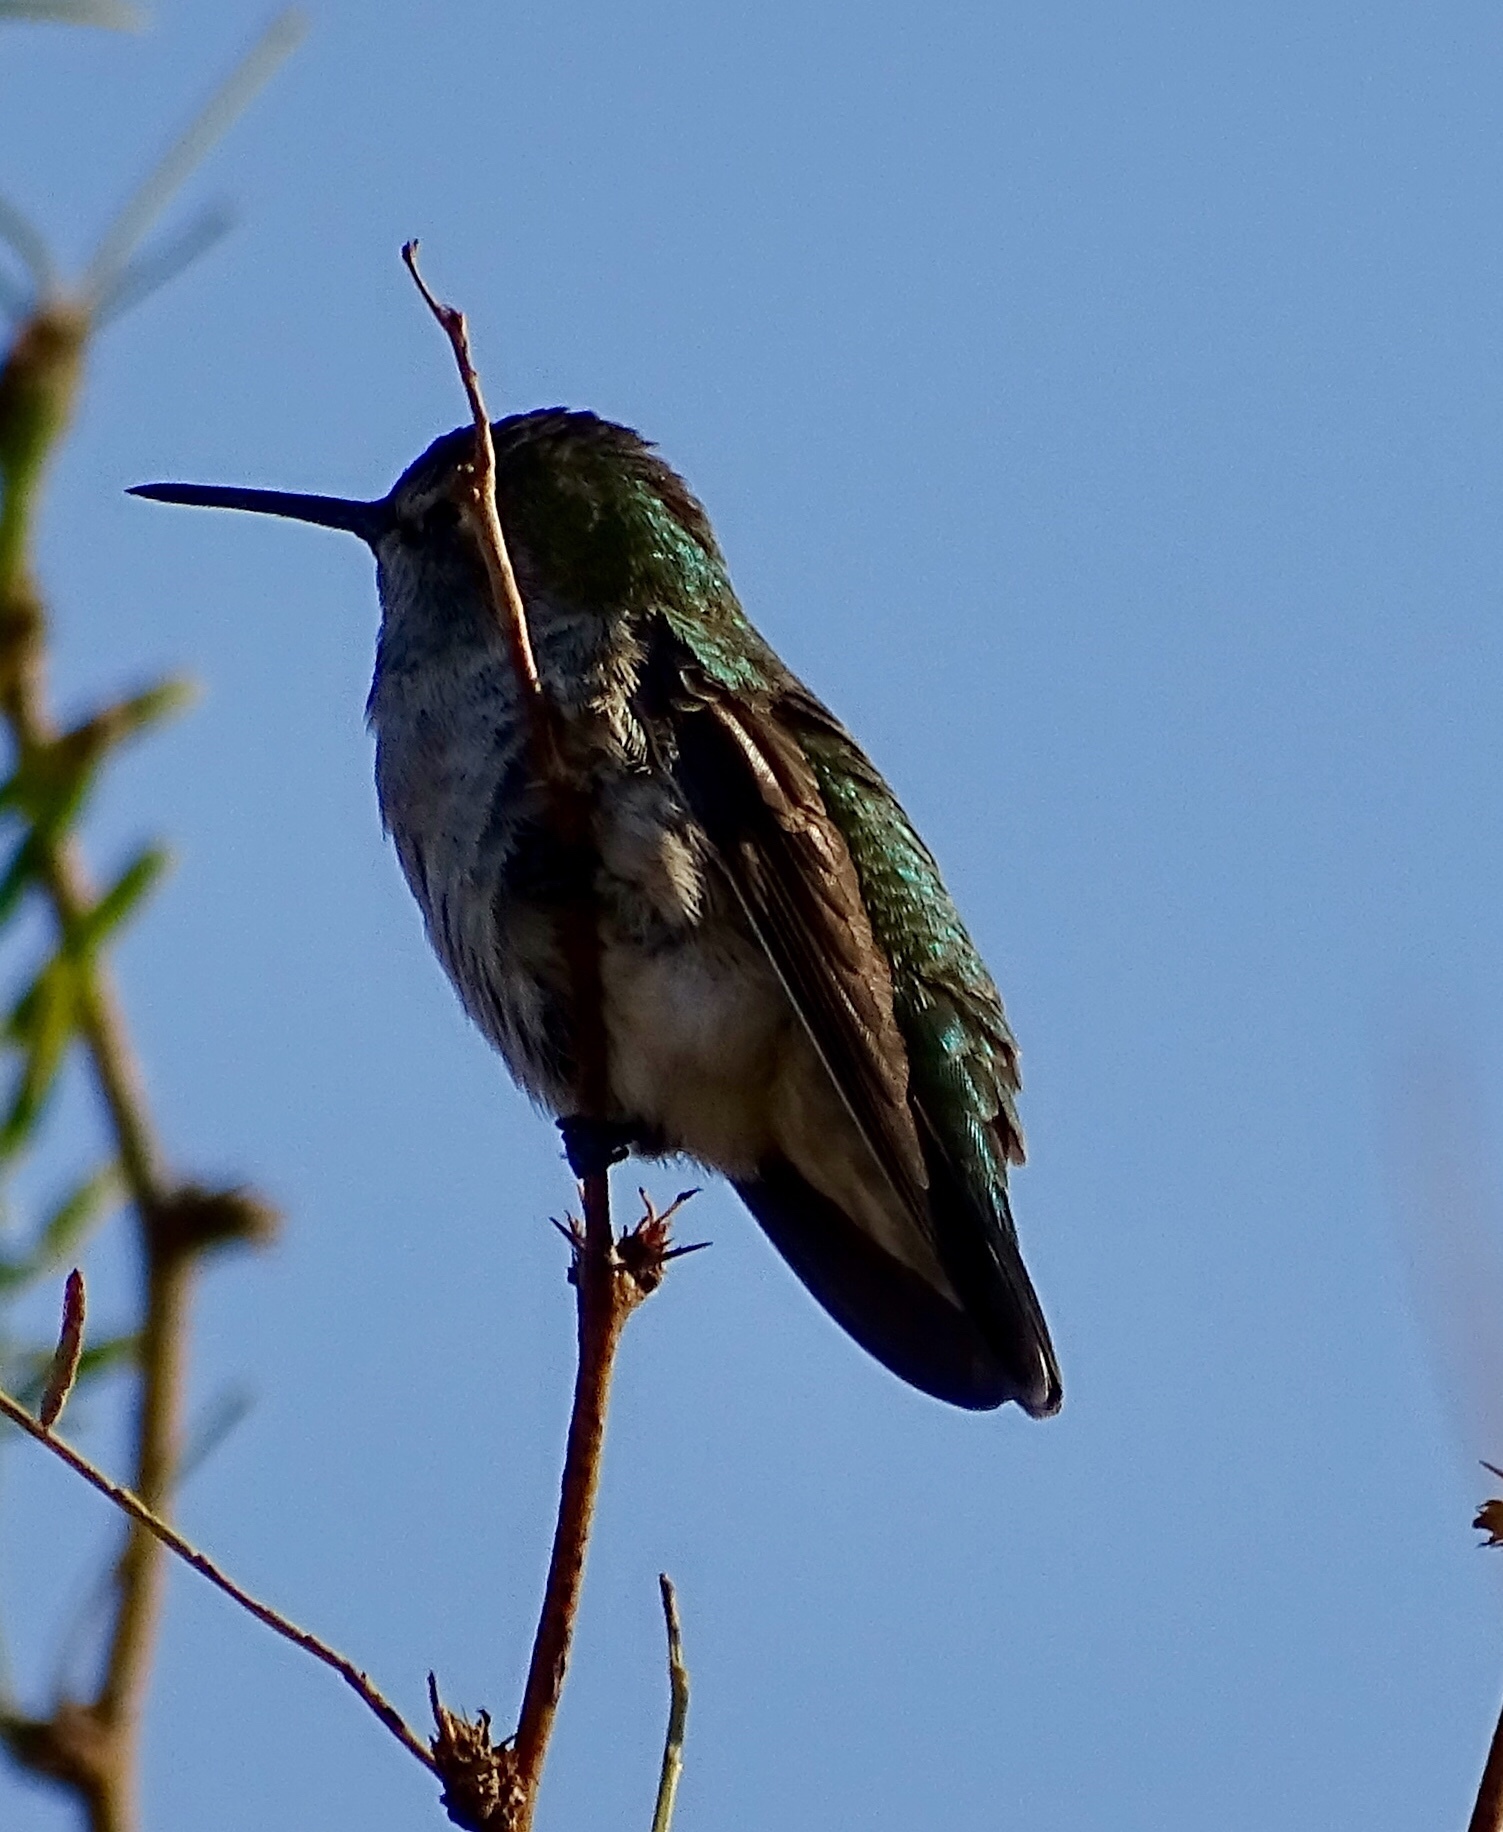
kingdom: Animalia
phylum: Chordata
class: Aves
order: Apodiformes
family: Trochilidae
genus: Calypte
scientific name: Calypte anna
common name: Anna's hummingbird
